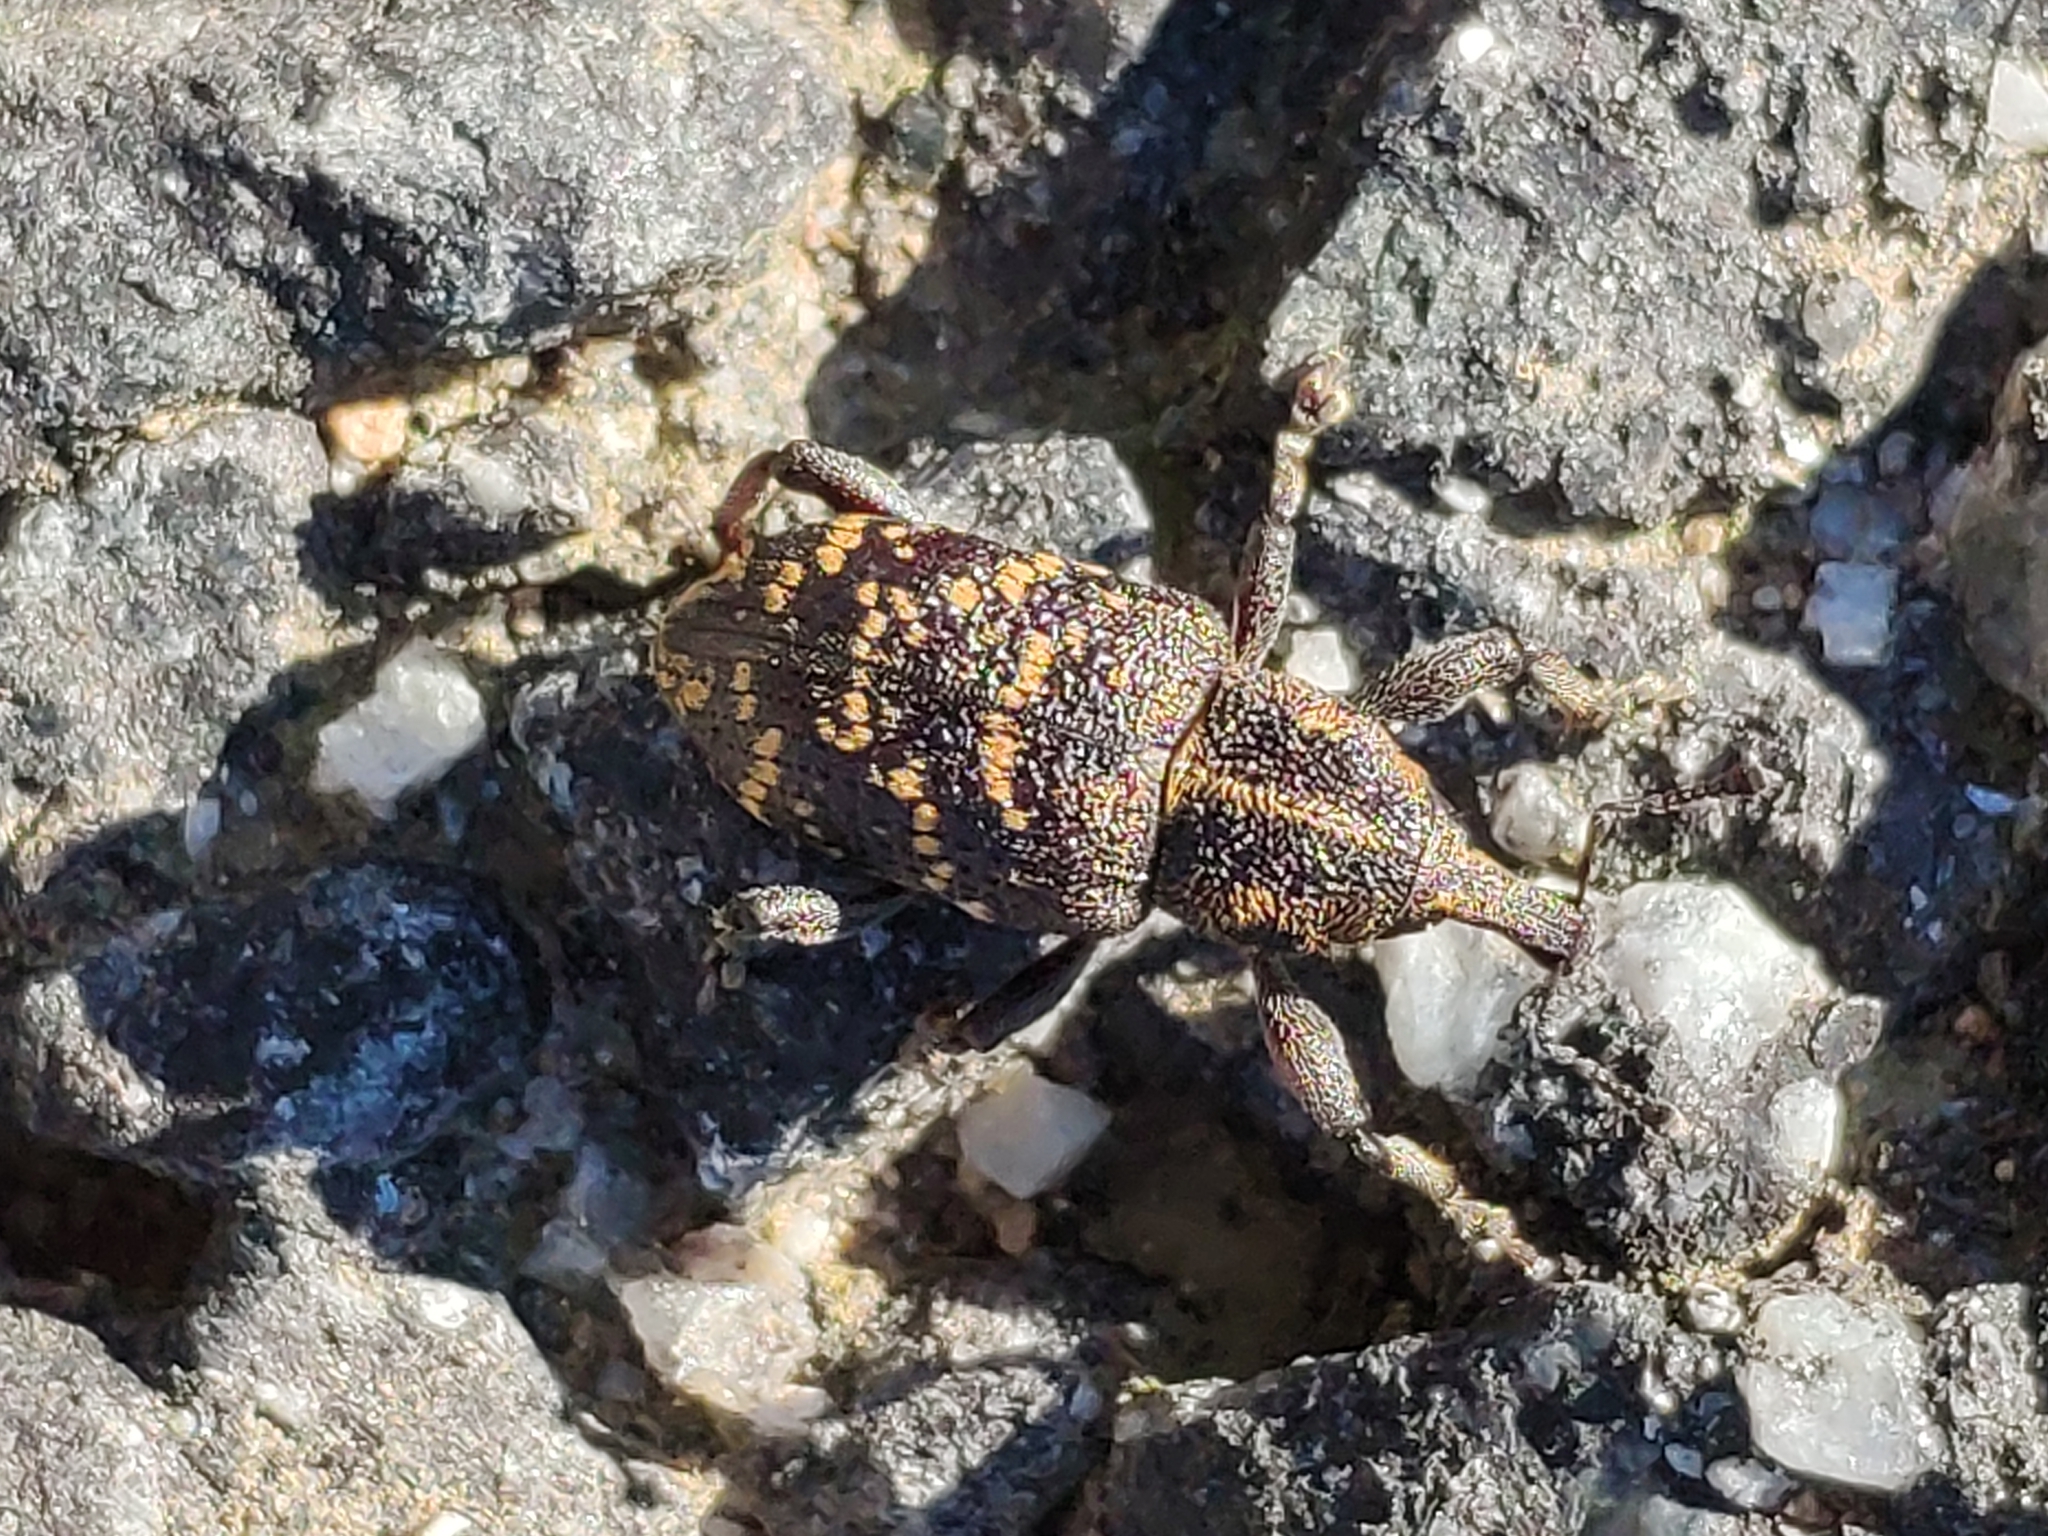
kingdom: Animalia
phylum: Arthropoda
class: Insecta
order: Coleoptera
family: Curculionidae
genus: Hylobius
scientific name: Hylobius abietis
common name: Large pine weevil
